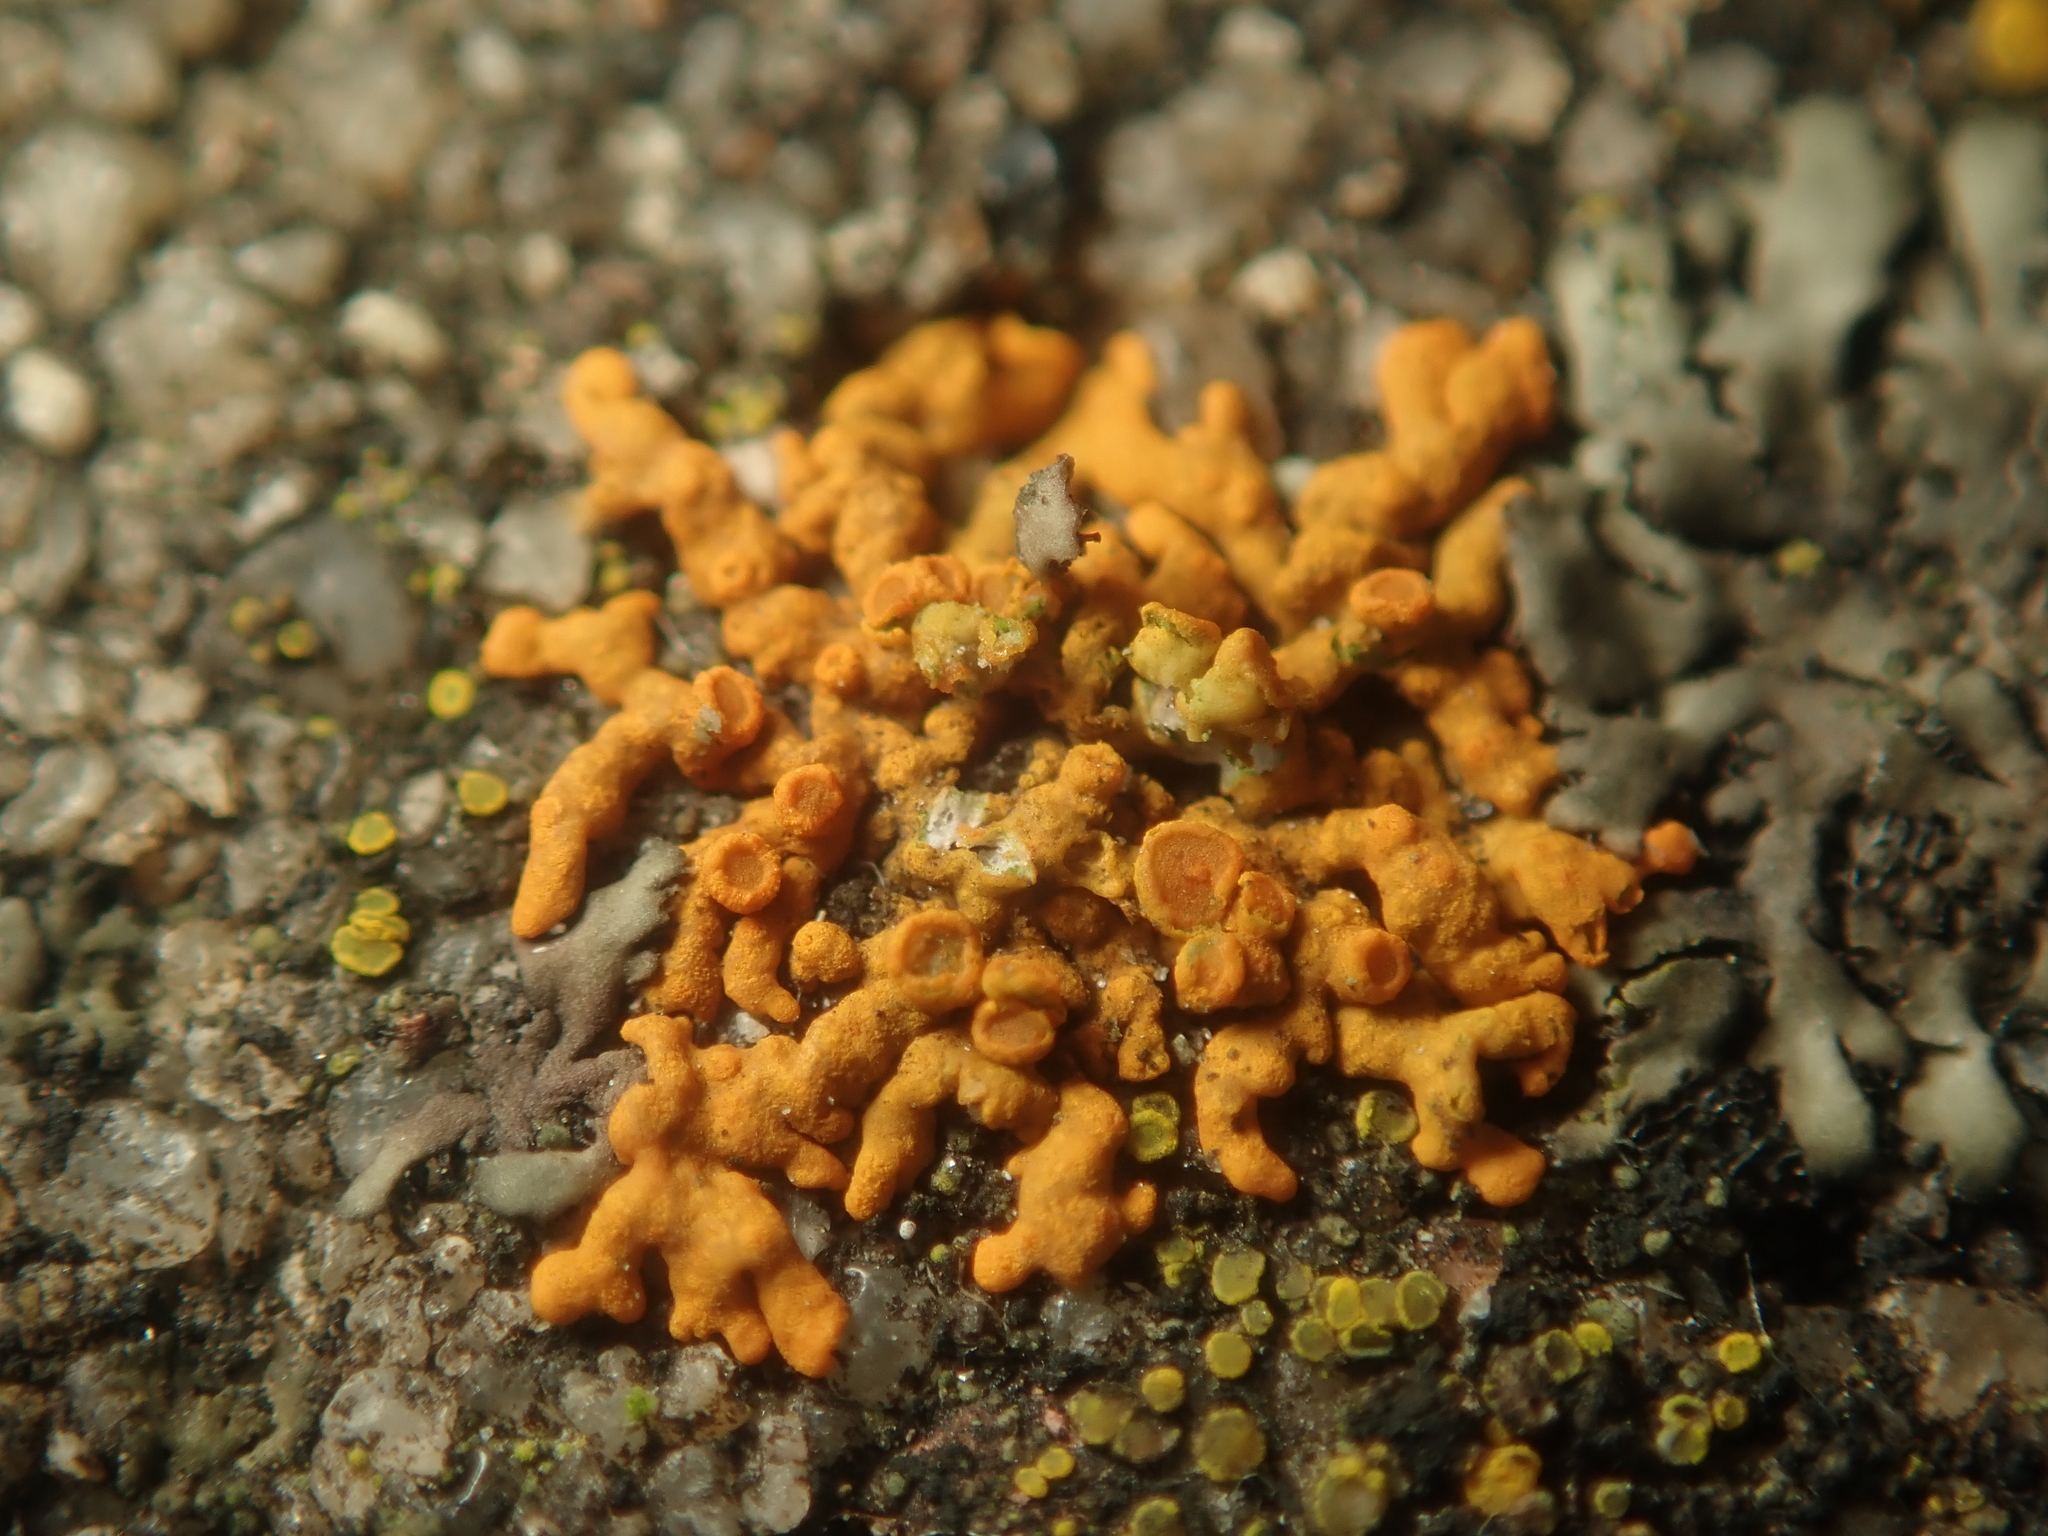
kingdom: Fungi
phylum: Ascomycota
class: Lecanoromycetes
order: Teloschistales
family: Teloschistaceae
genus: Xanthoria
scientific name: Xanthoria elegans
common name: Elegant sunburst lichen
